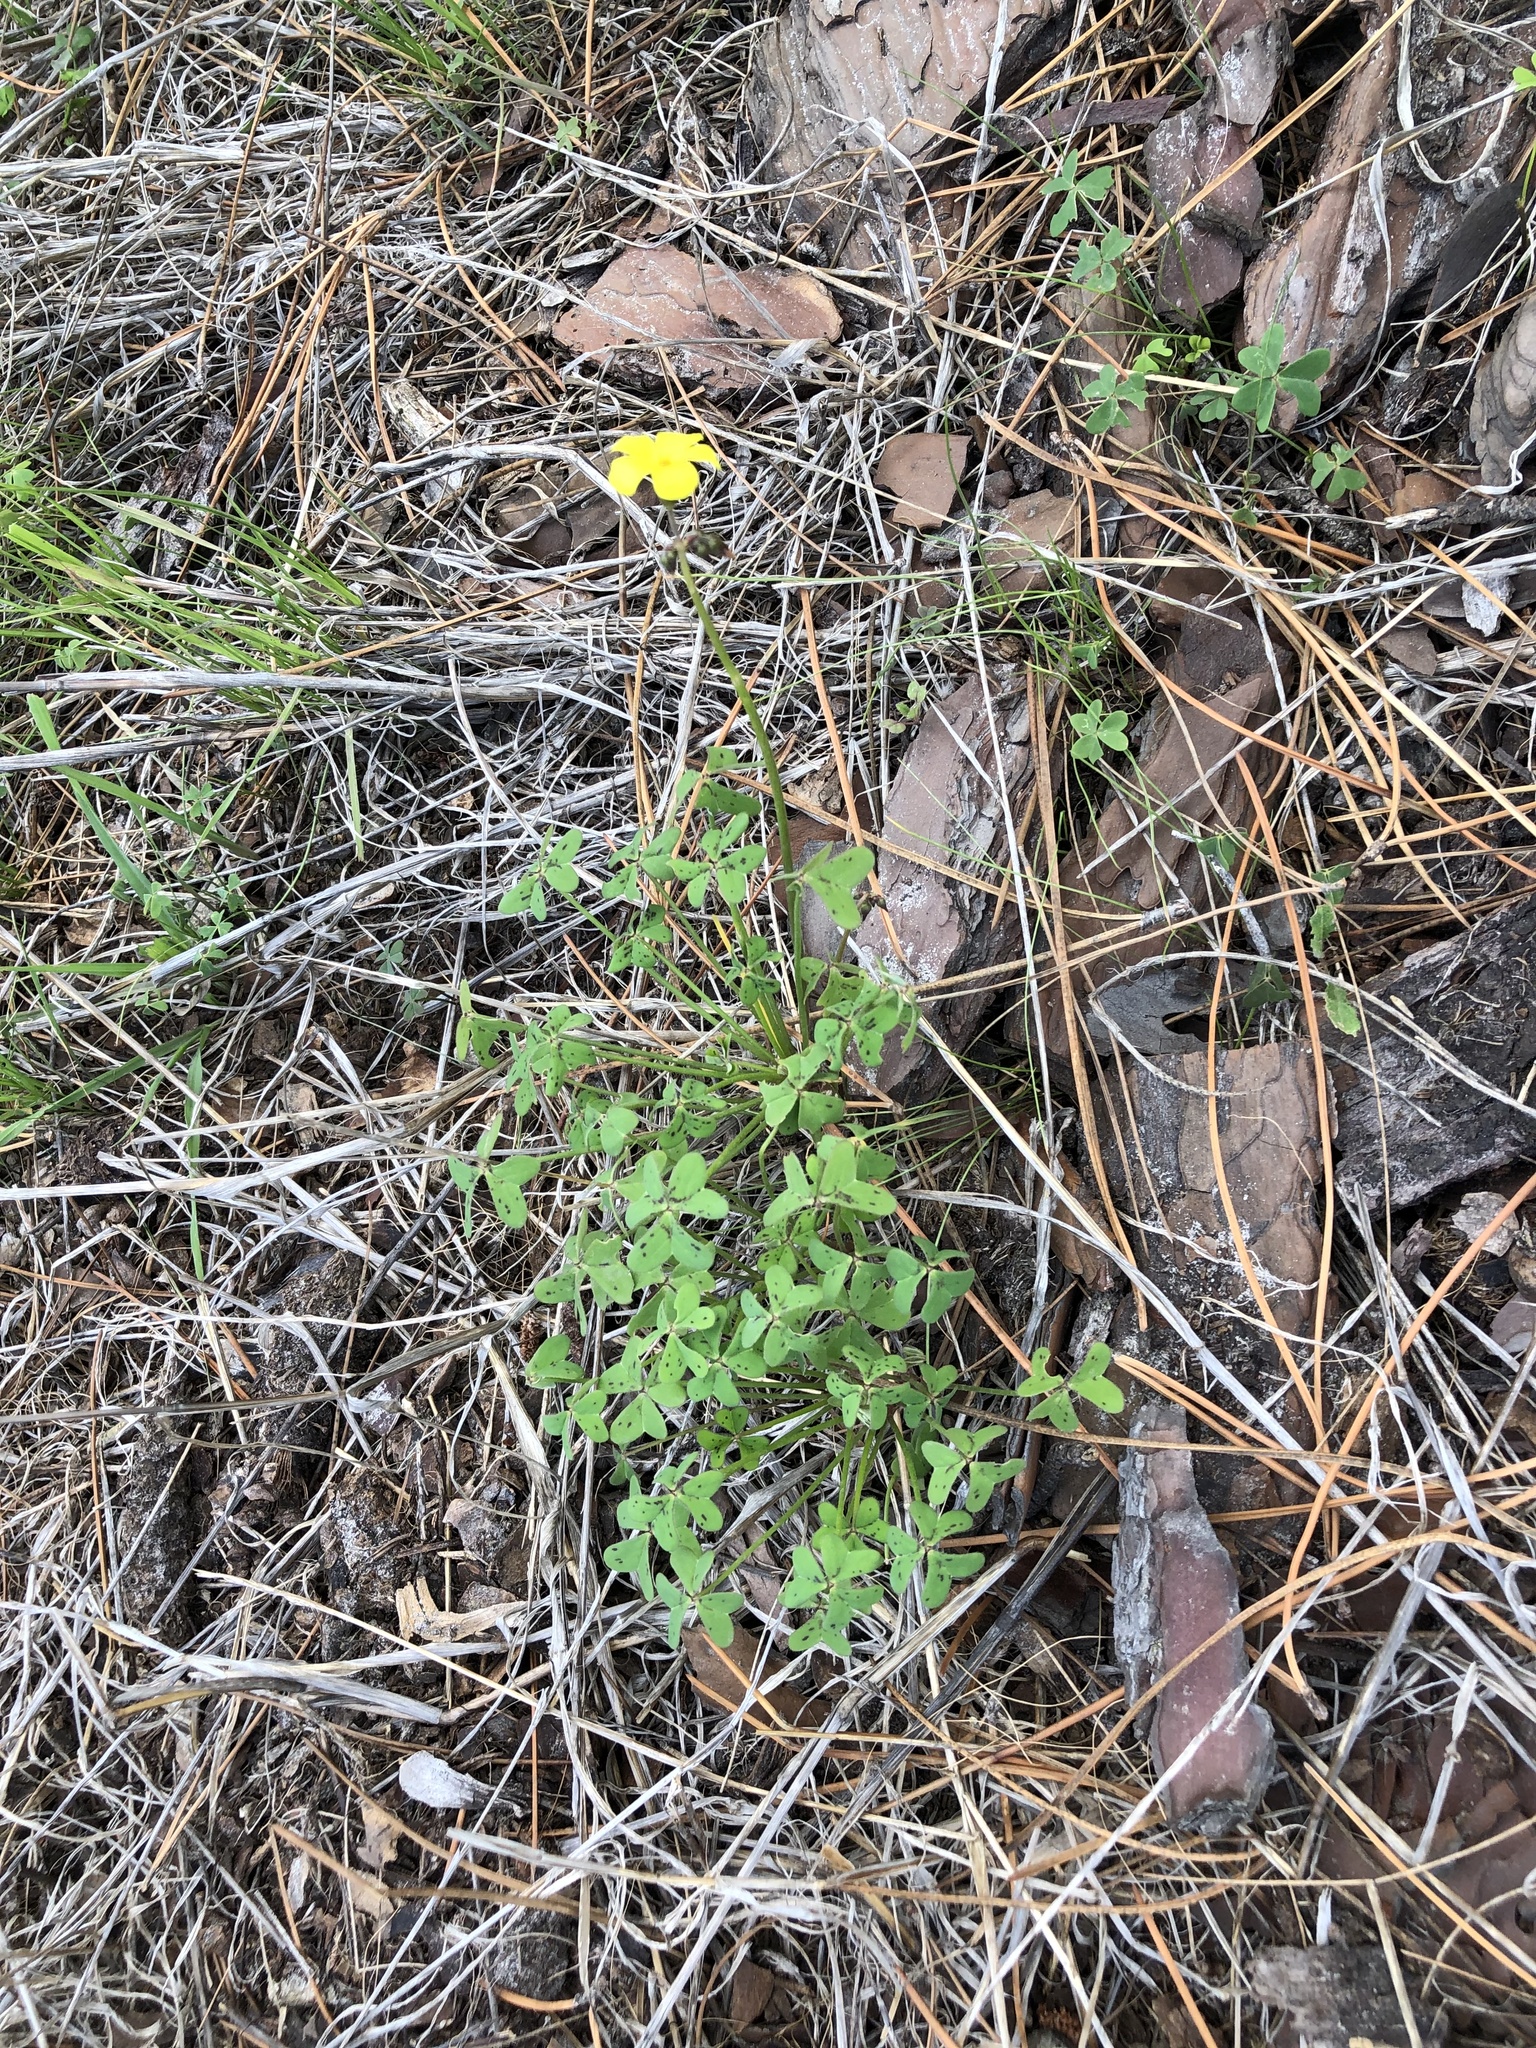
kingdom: Plantae
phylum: Tracheophyta
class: Magnoliopsida
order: Oxalidales
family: Oxalidaceae
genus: Oxalis
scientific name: Oxalis pes-caprae
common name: Bermuda-buttercup
